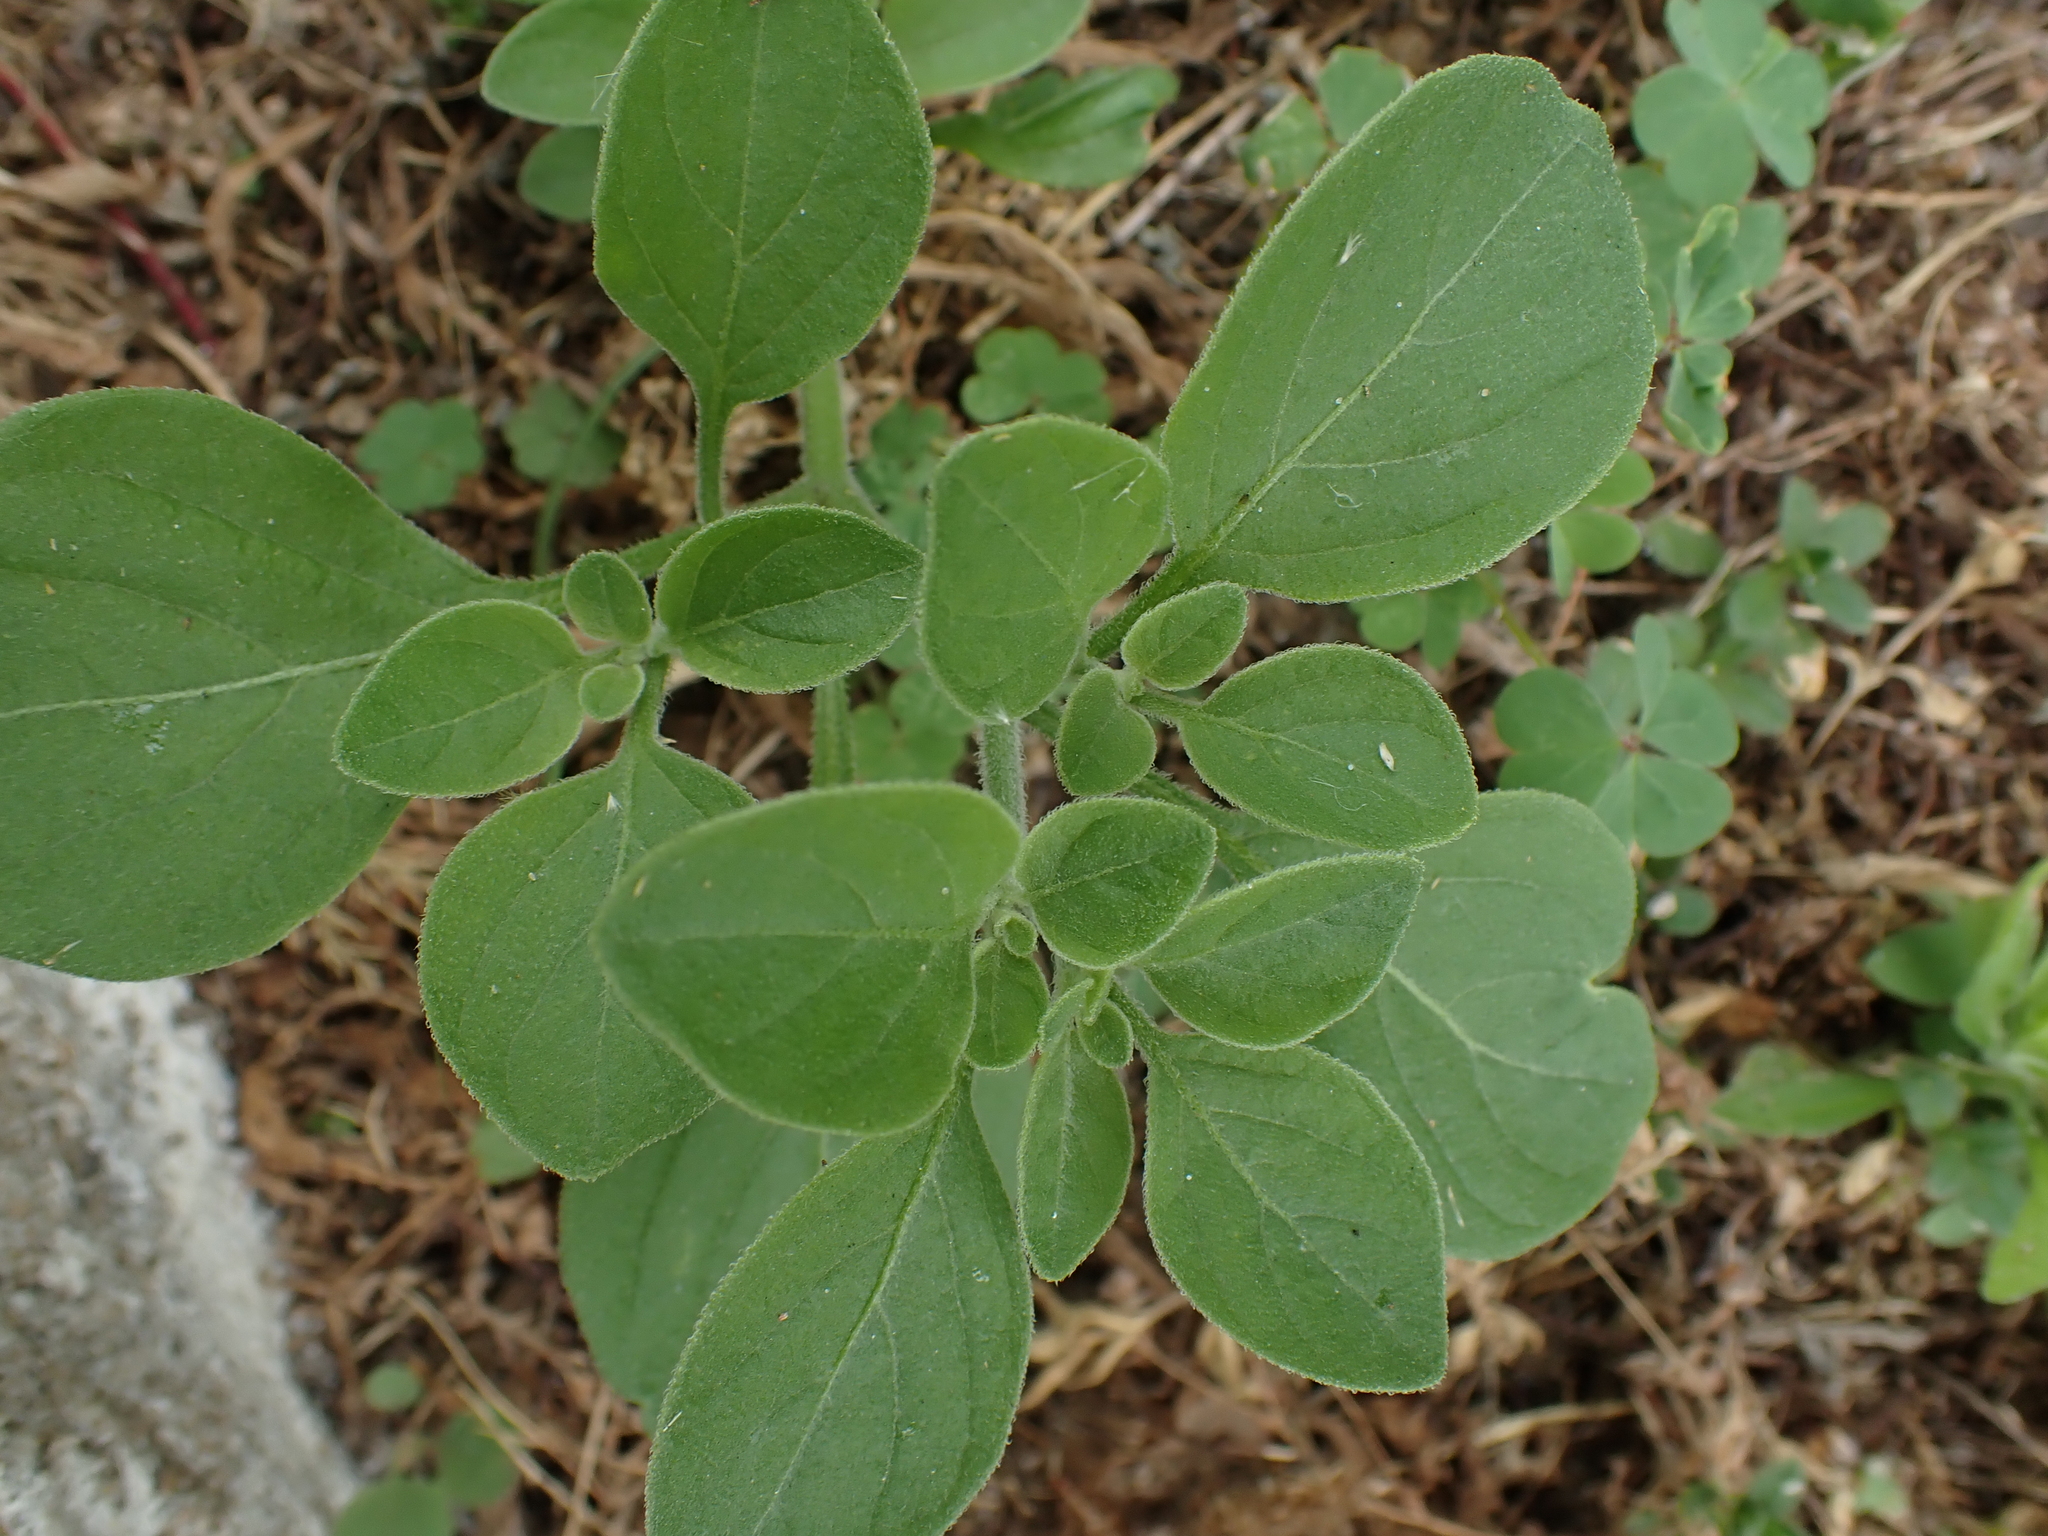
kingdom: Plantae
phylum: Tracheophyta
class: Magnoliopsida
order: Solanales
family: Solanaceae
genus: Salpichroa
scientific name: Salpichroa origanifolia
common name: Lily-of-the-valley-vine
